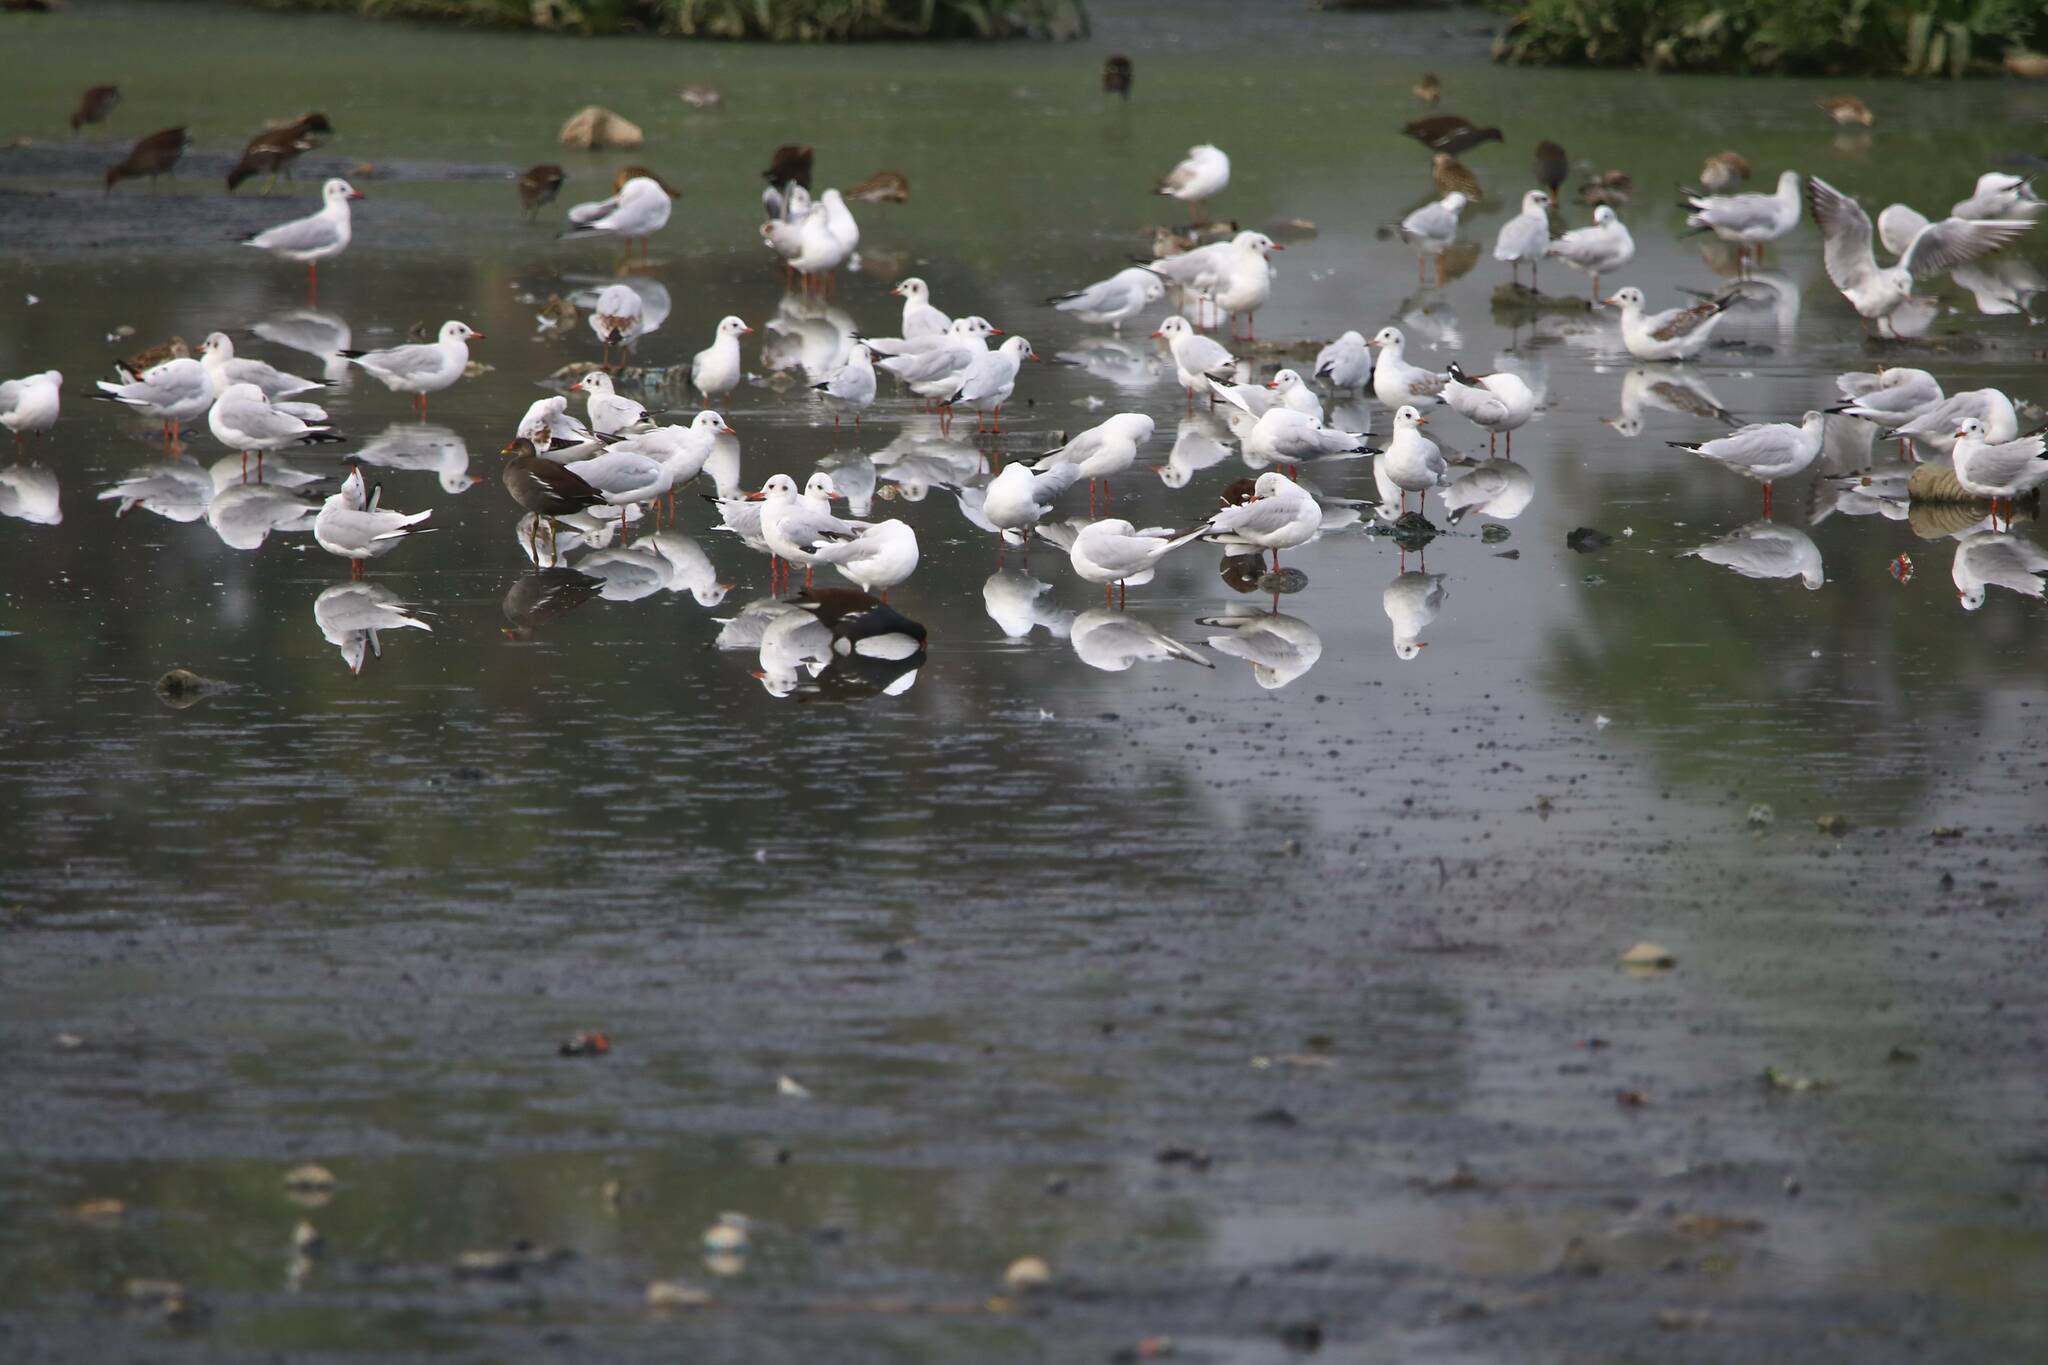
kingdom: Animalia
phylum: Chordata
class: Aves
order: Charadriiformes
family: Laridae
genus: Chroicocephalus
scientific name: Chroicocephalus ridibundus
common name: Black-headed gull
